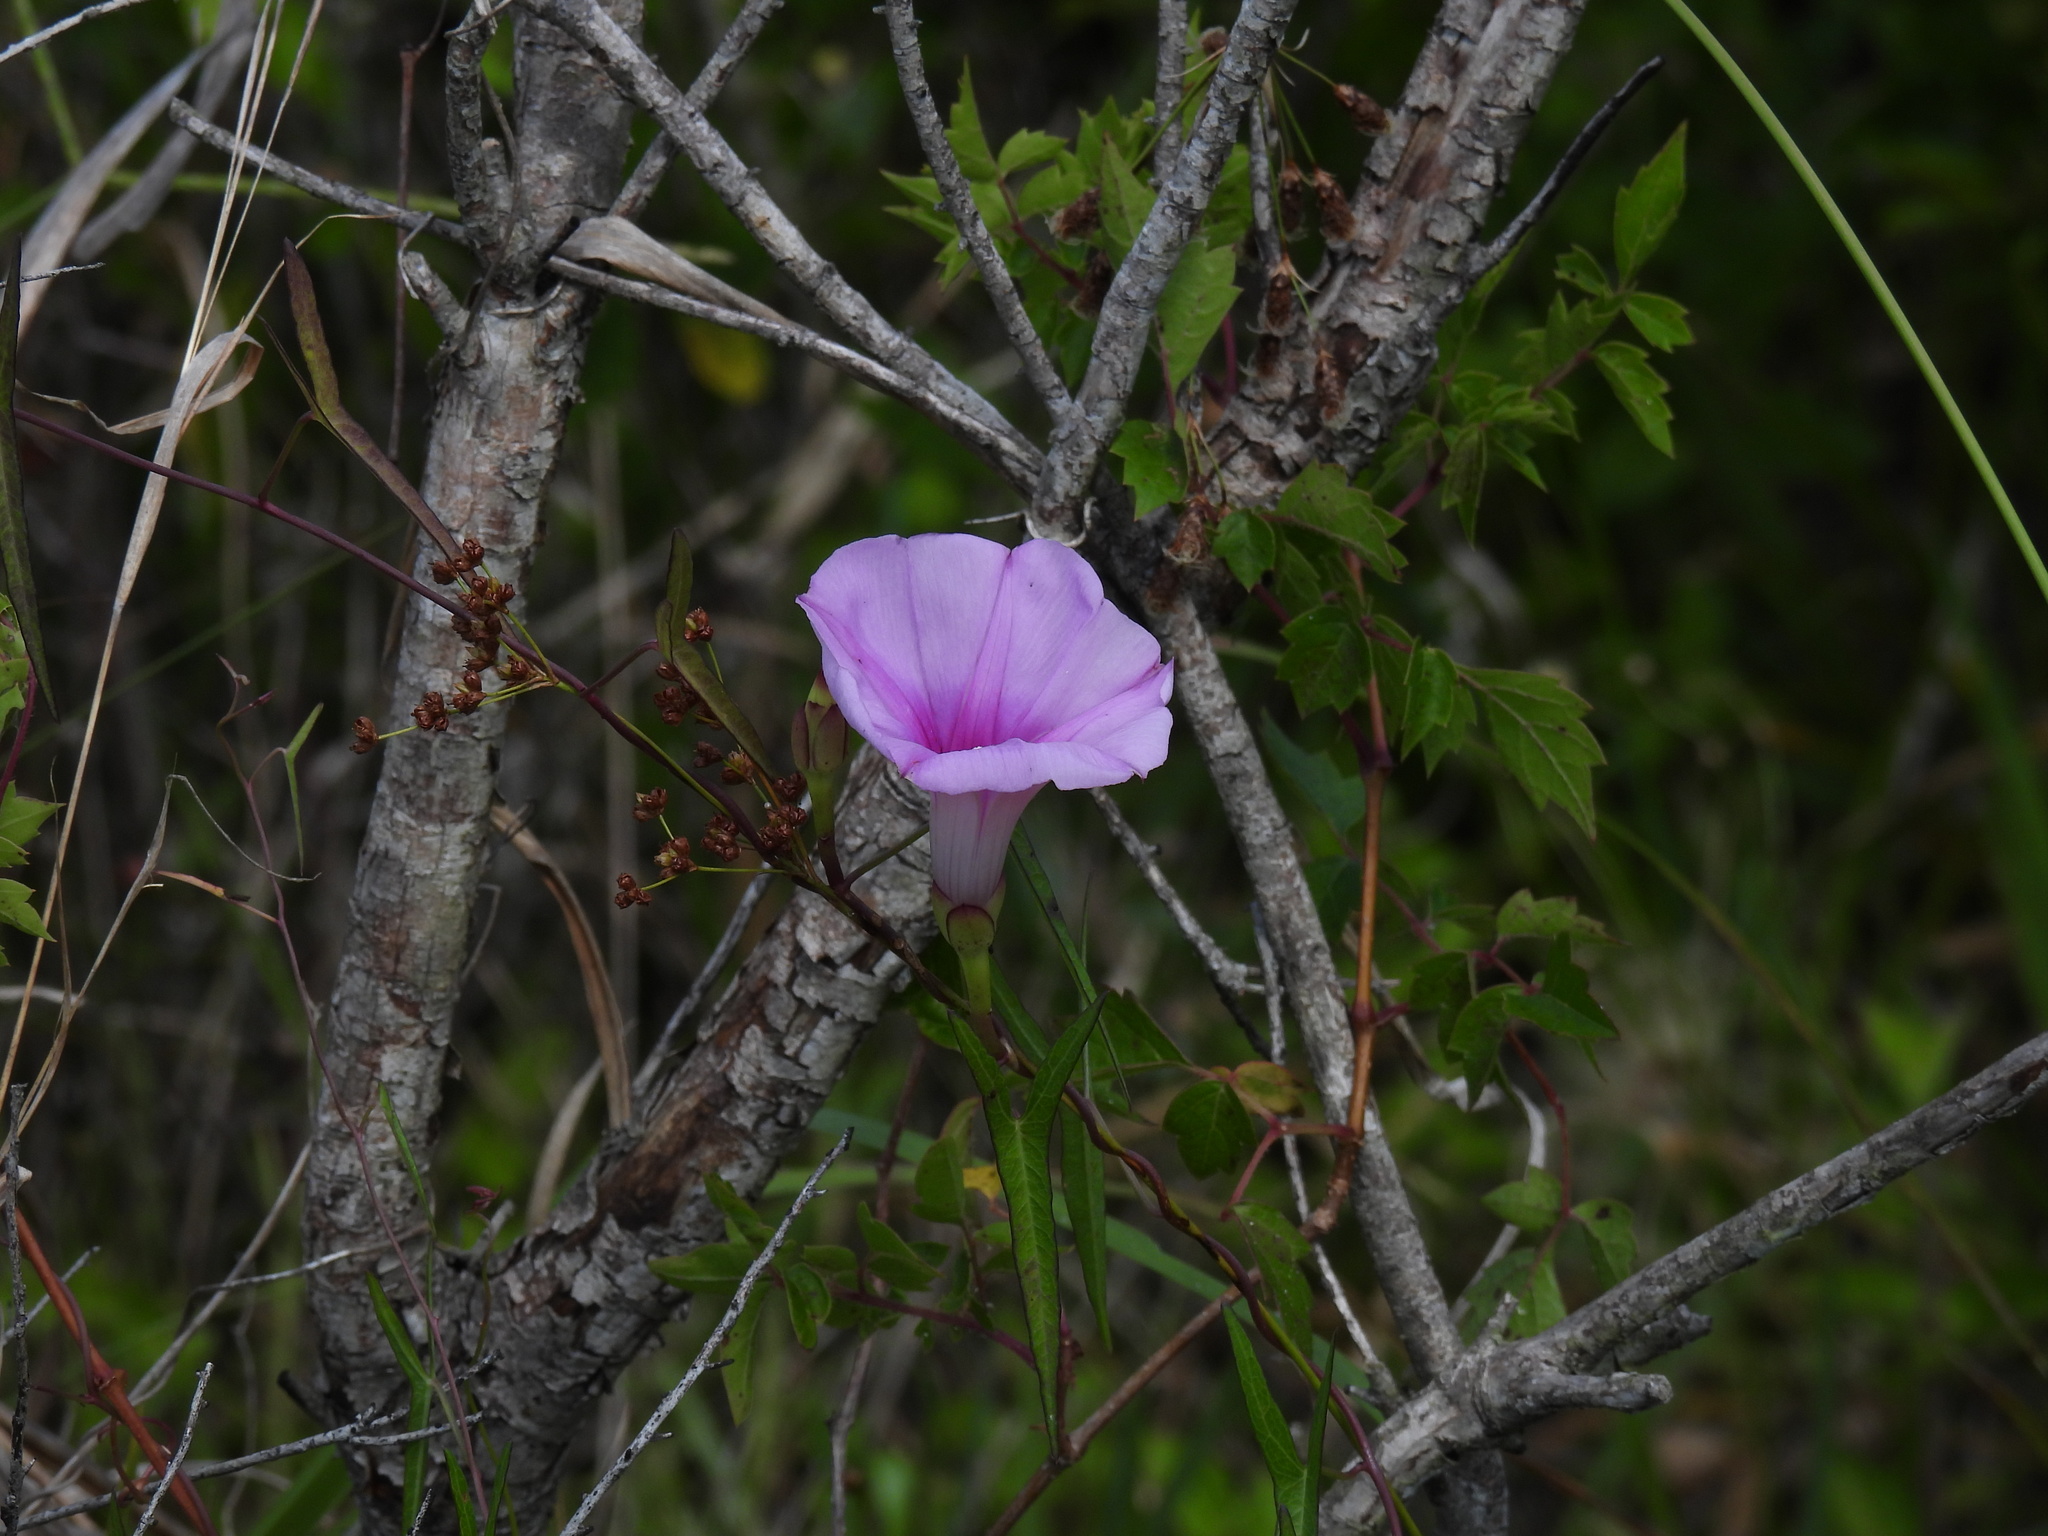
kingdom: Plantae
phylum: Tracheophyta
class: Magnoliopsida
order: Solanales
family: Convolvulaceae
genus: Ipomoea
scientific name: Ipomoea sagittata
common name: Saltmarsh morning glory
